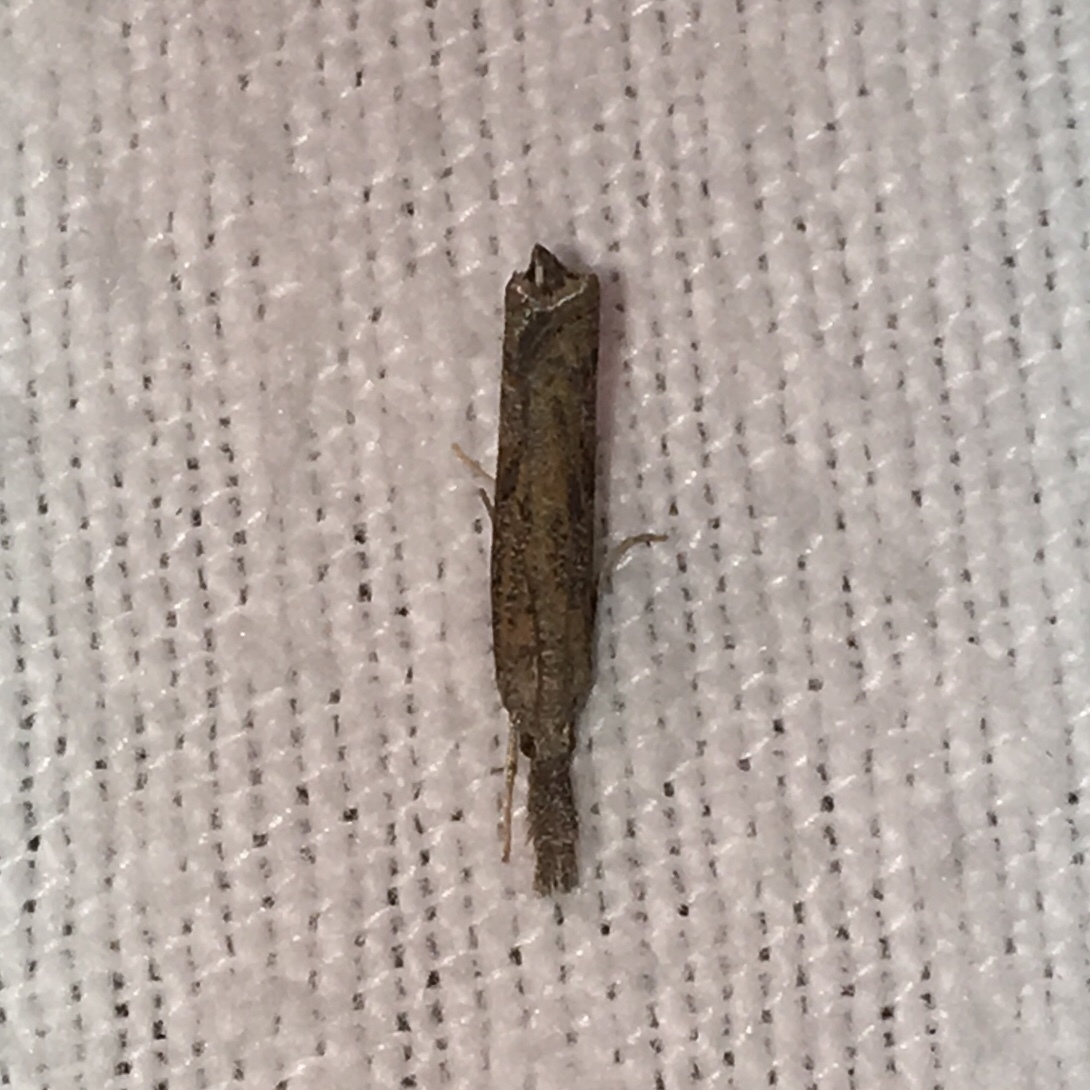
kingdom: Animalia
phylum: Arthropoda
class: Insecta
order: Lepidoptera
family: Crambidae
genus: Fissicrambus
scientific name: Fissicrambus mutabilis
